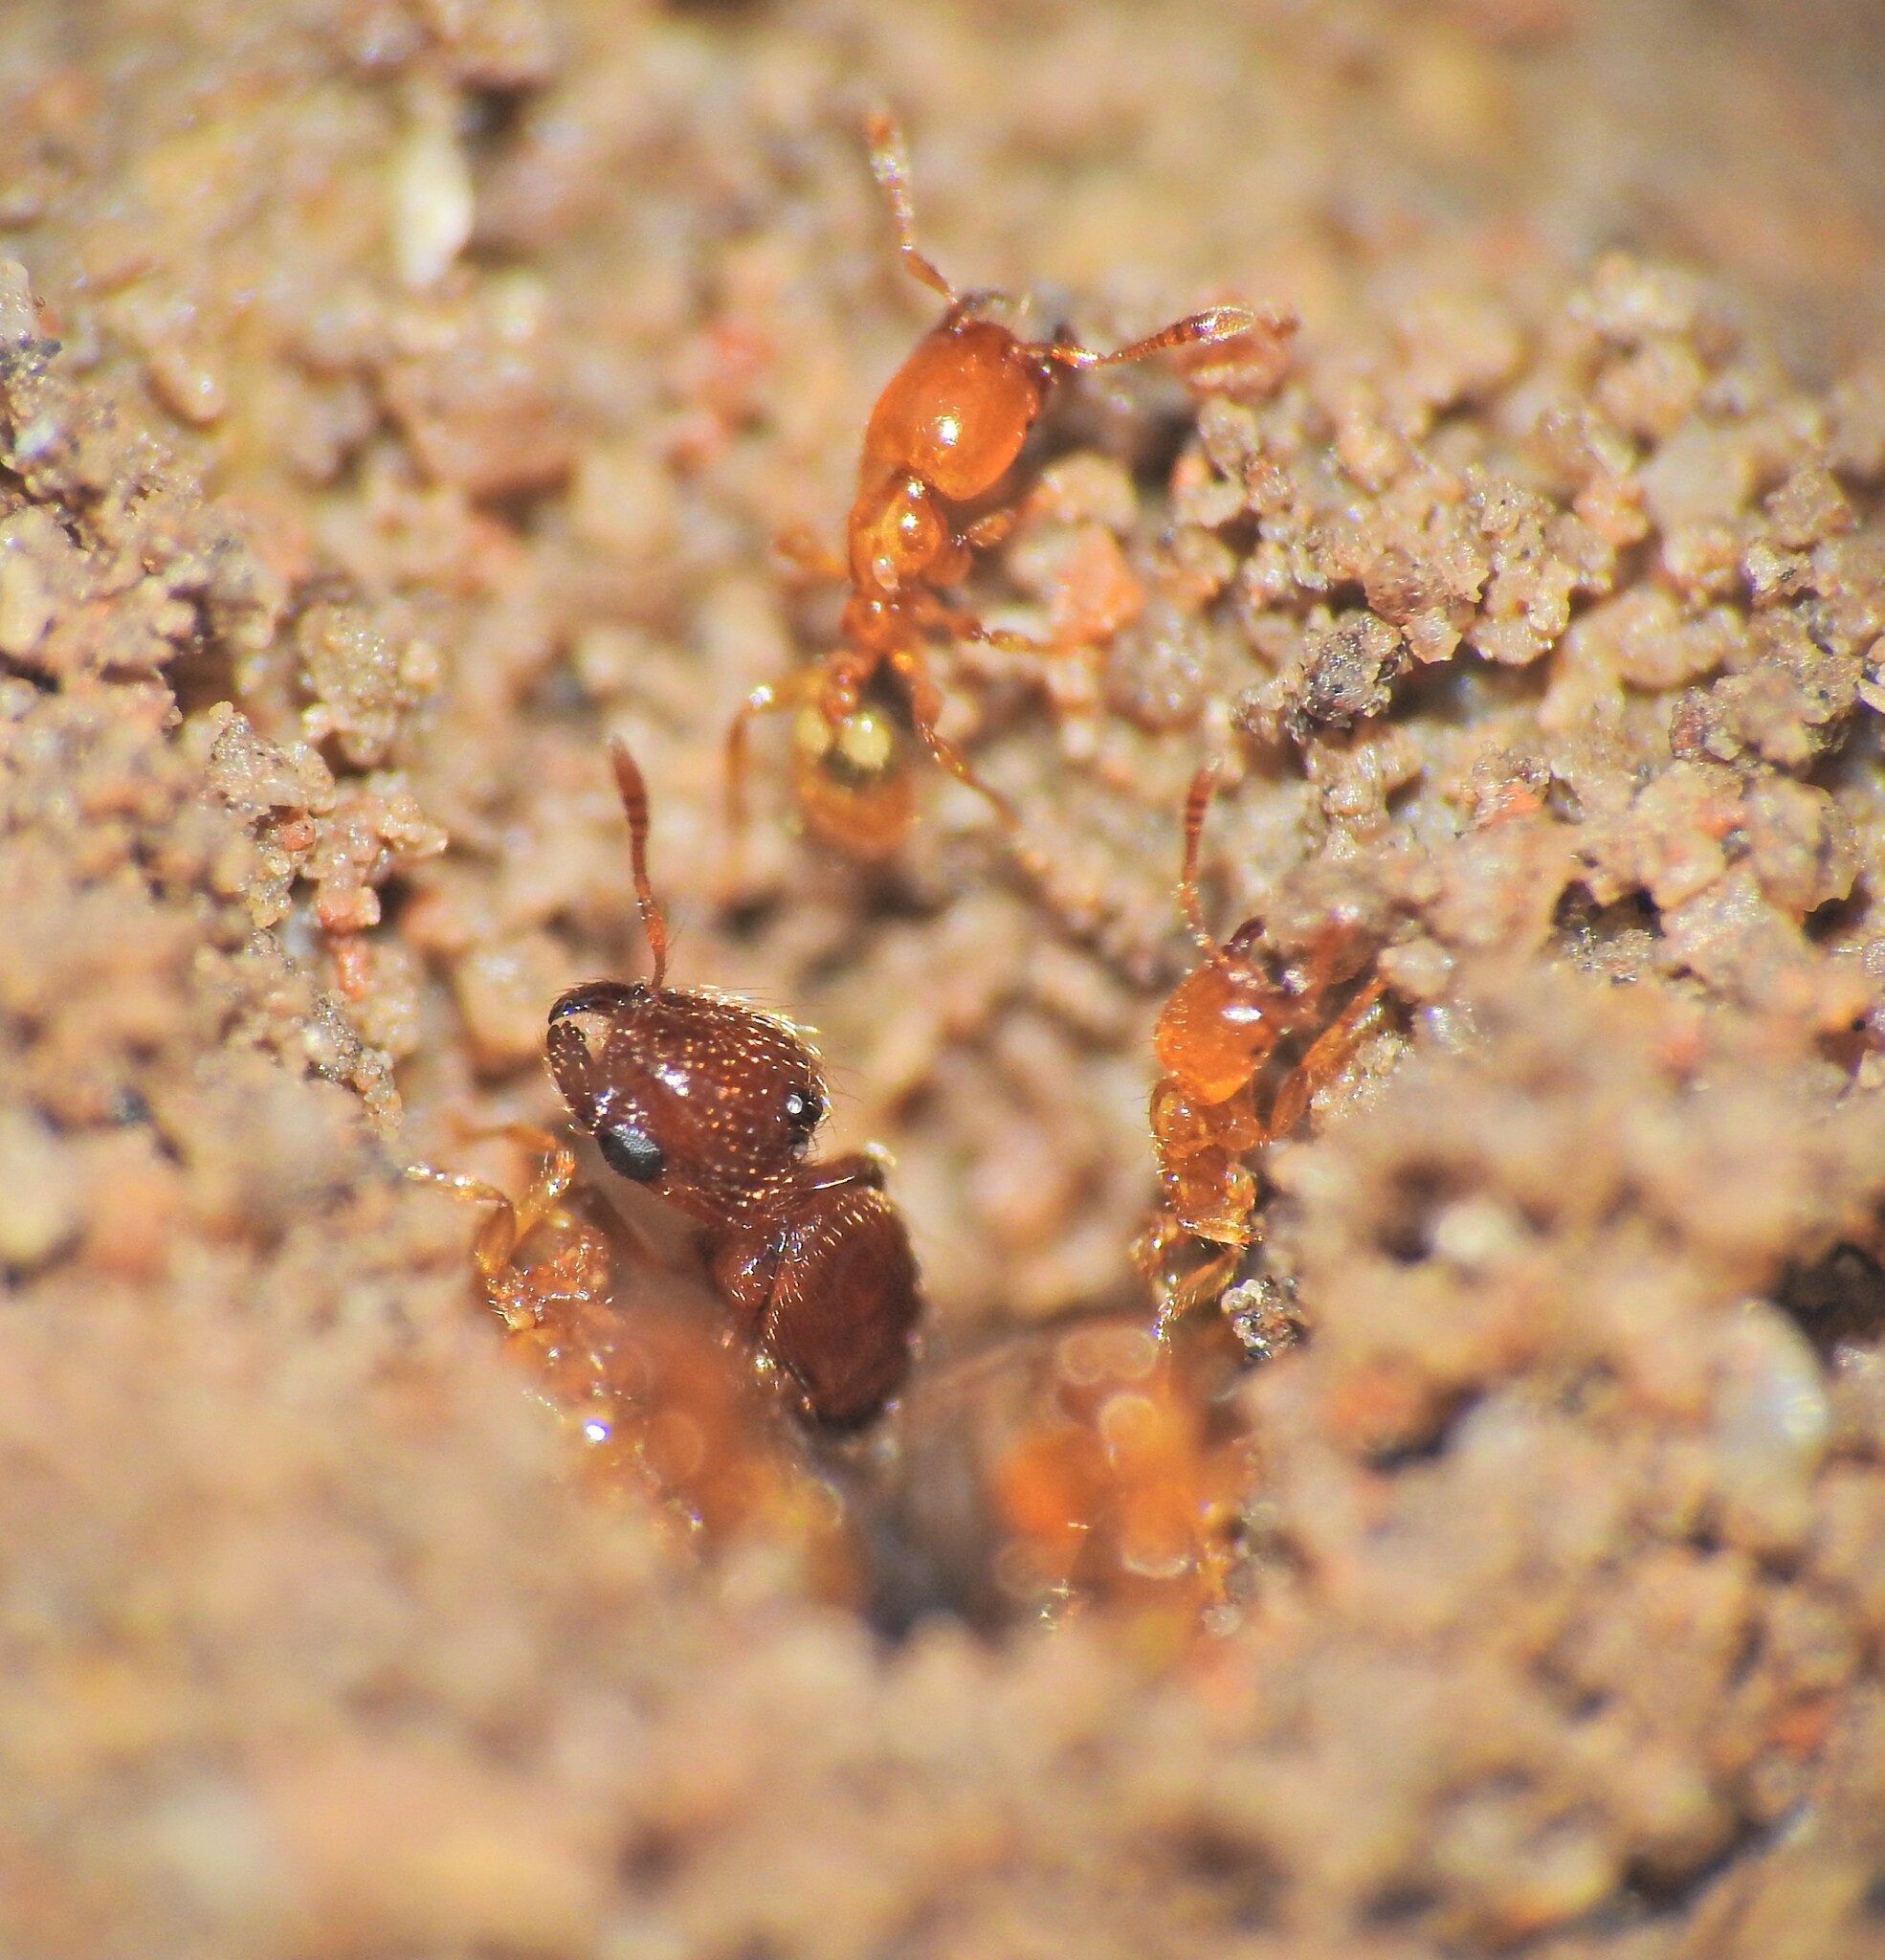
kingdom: Animalia
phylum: Arthropoda
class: Insecta
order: Hymenoptera
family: Formicidae
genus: Pheidole
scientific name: Pheidole
